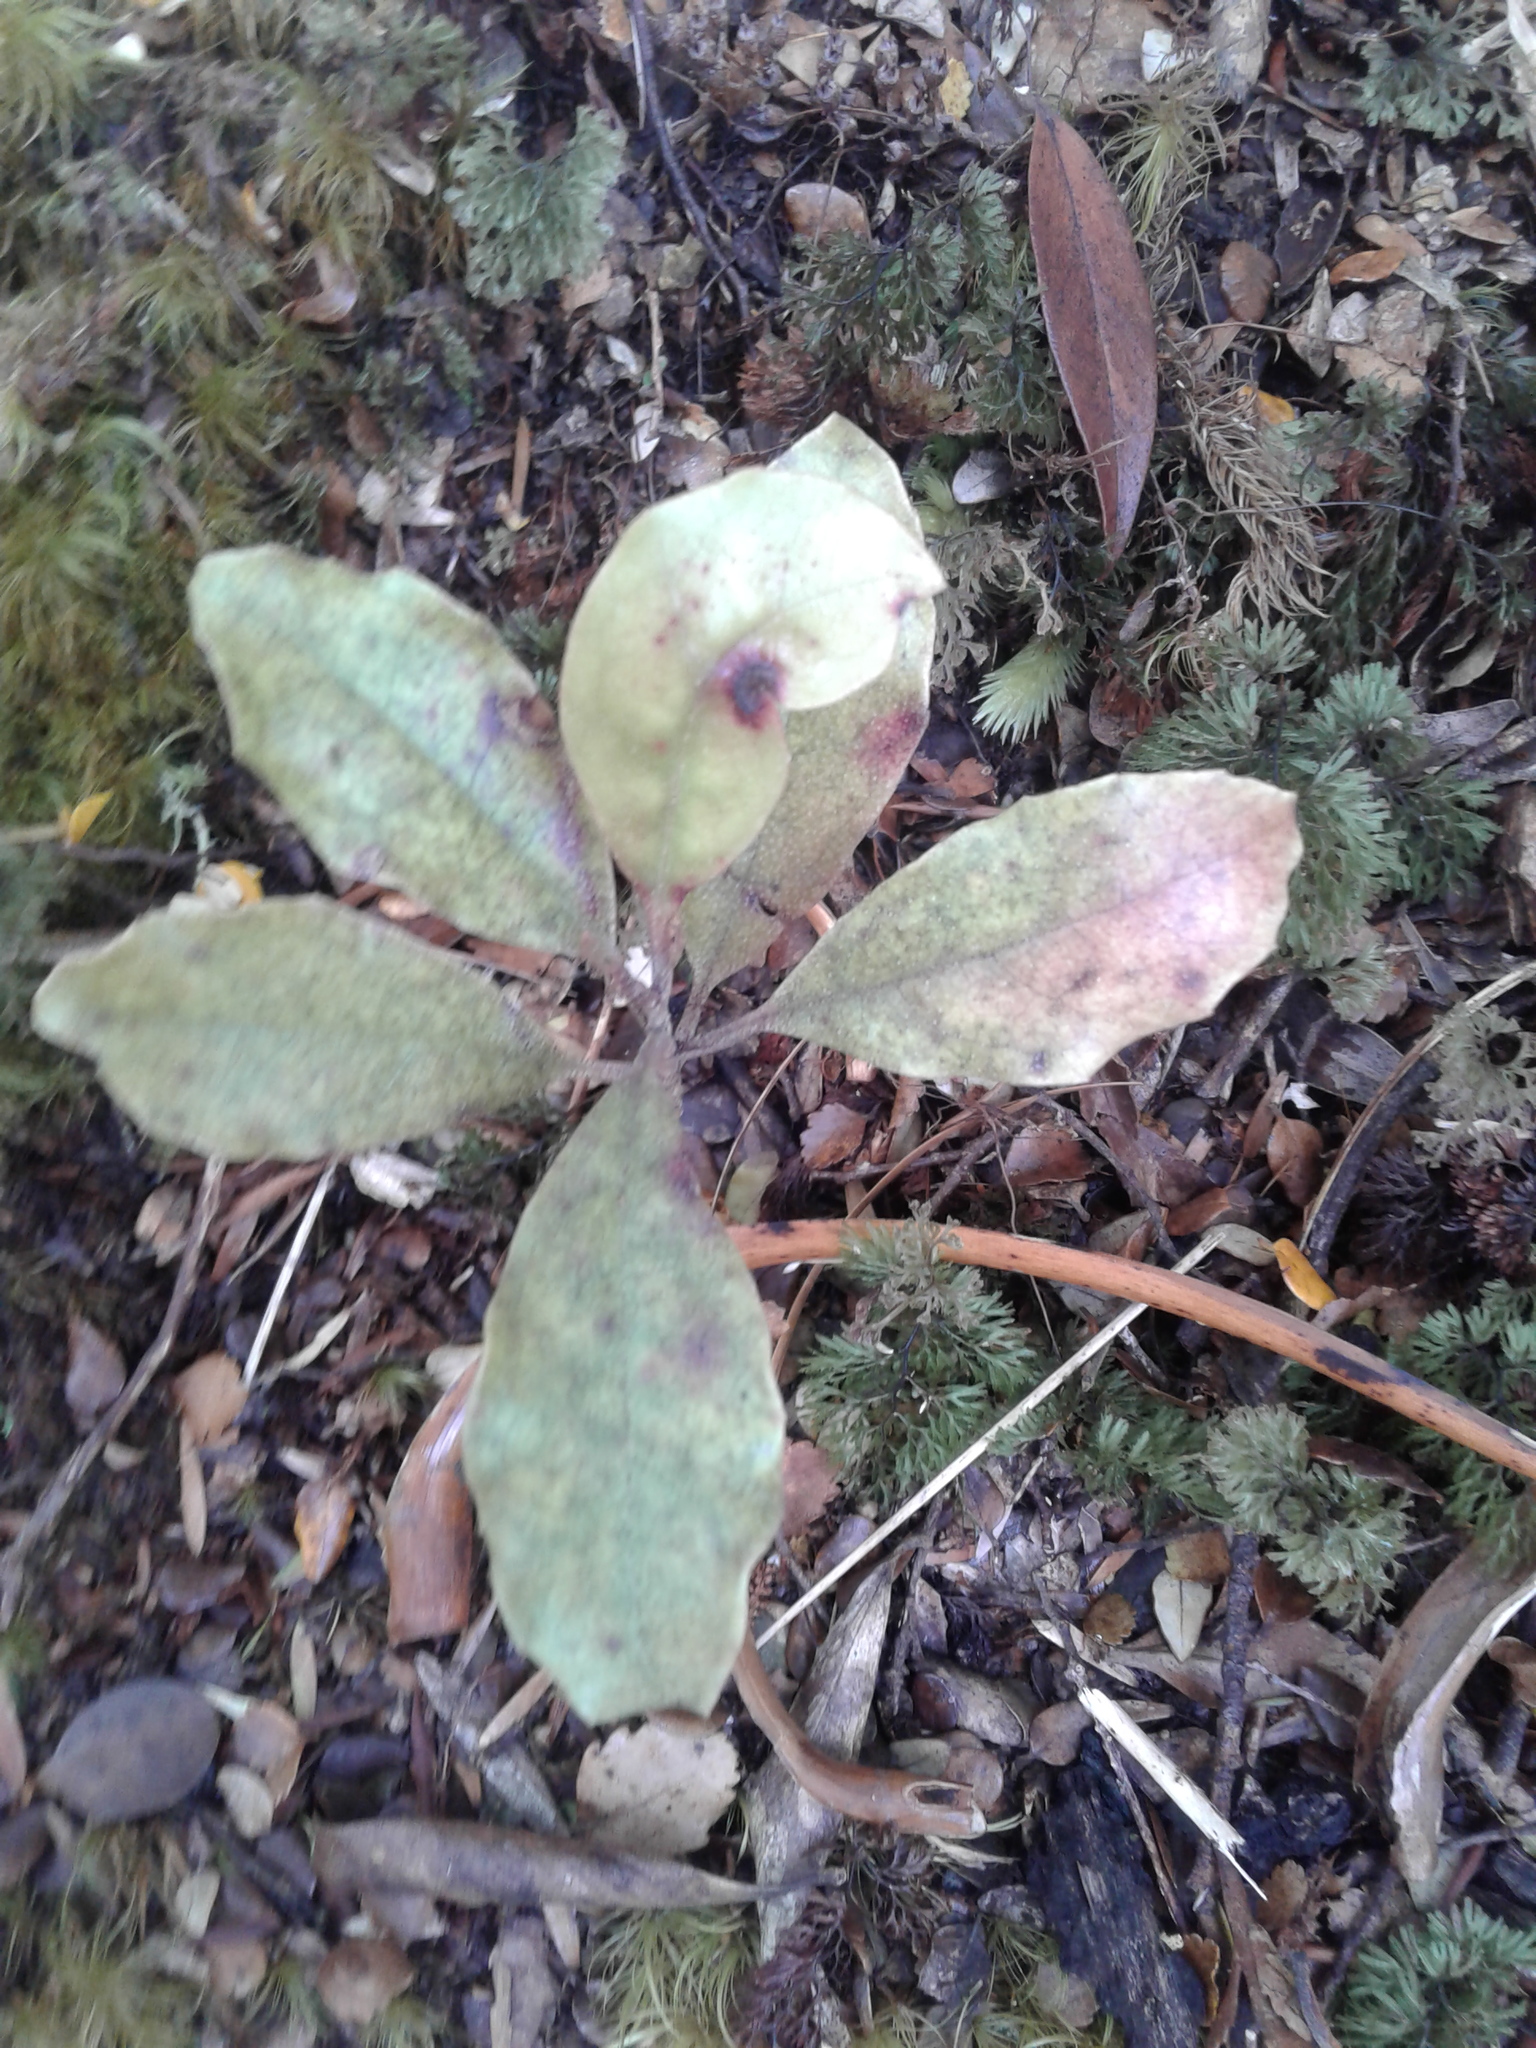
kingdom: Plantae
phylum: Tracheophyta
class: Magnoliopsida
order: Paracryphiales
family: Paracryphiaceae
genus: Quintinia
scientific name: Quintinia serrata
